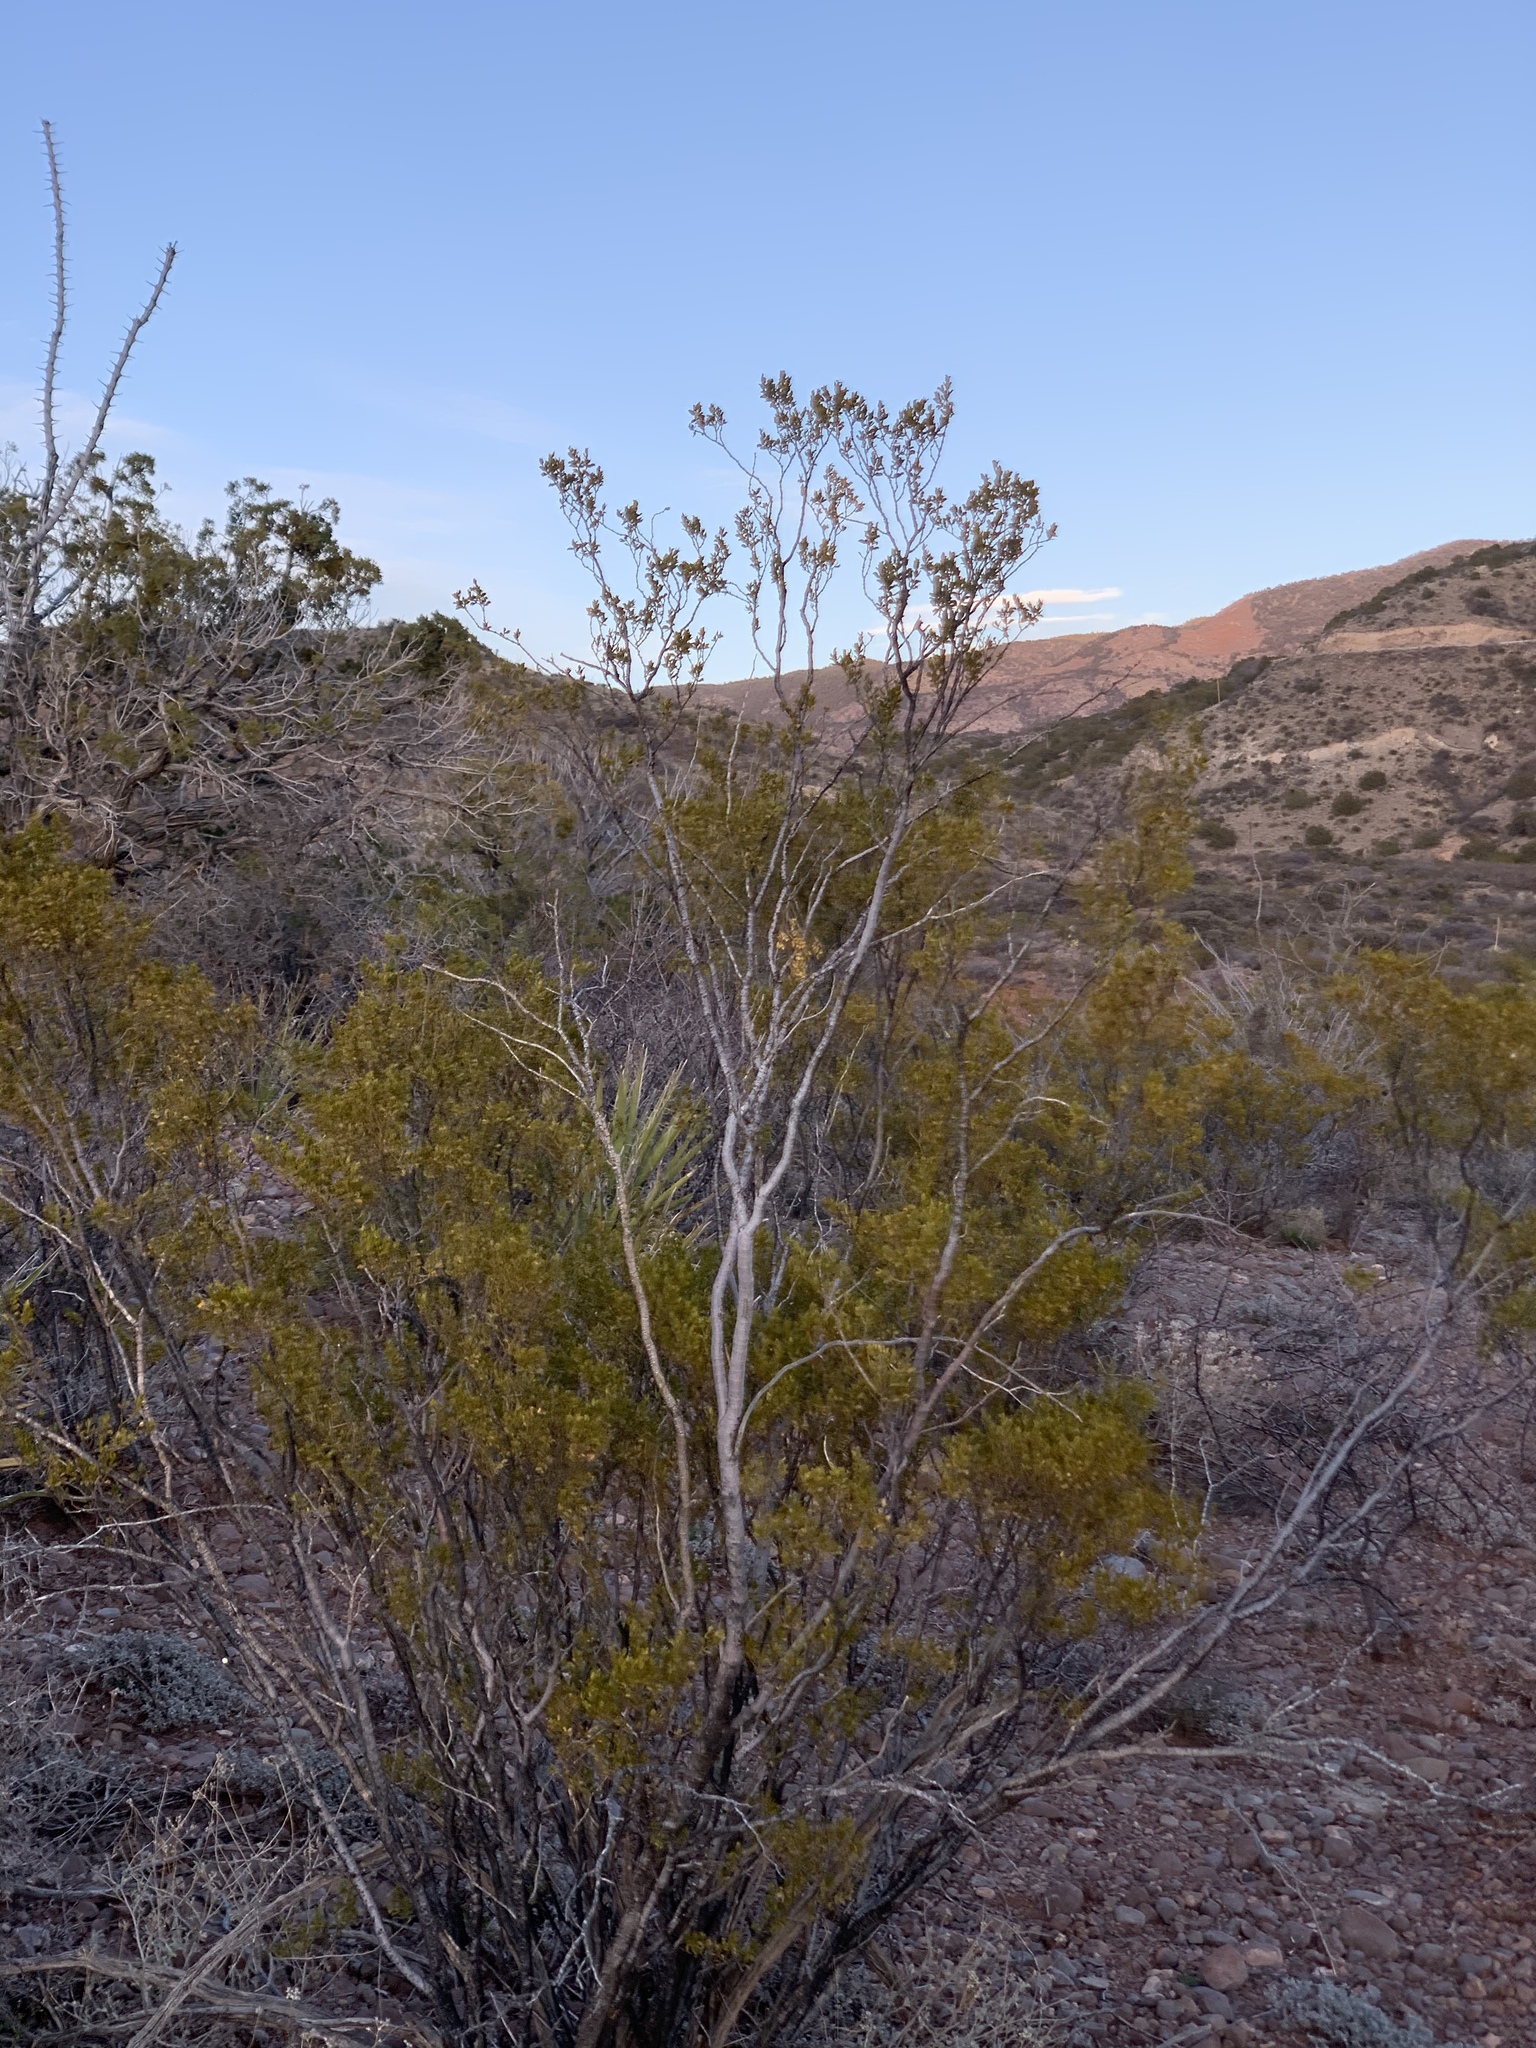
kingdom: Plantae
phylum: Tracheophyta
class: Magnoliopsida
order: Zygophyllales
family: Zygophyllaceae
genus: Larrea
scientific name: Larrea tridentata
